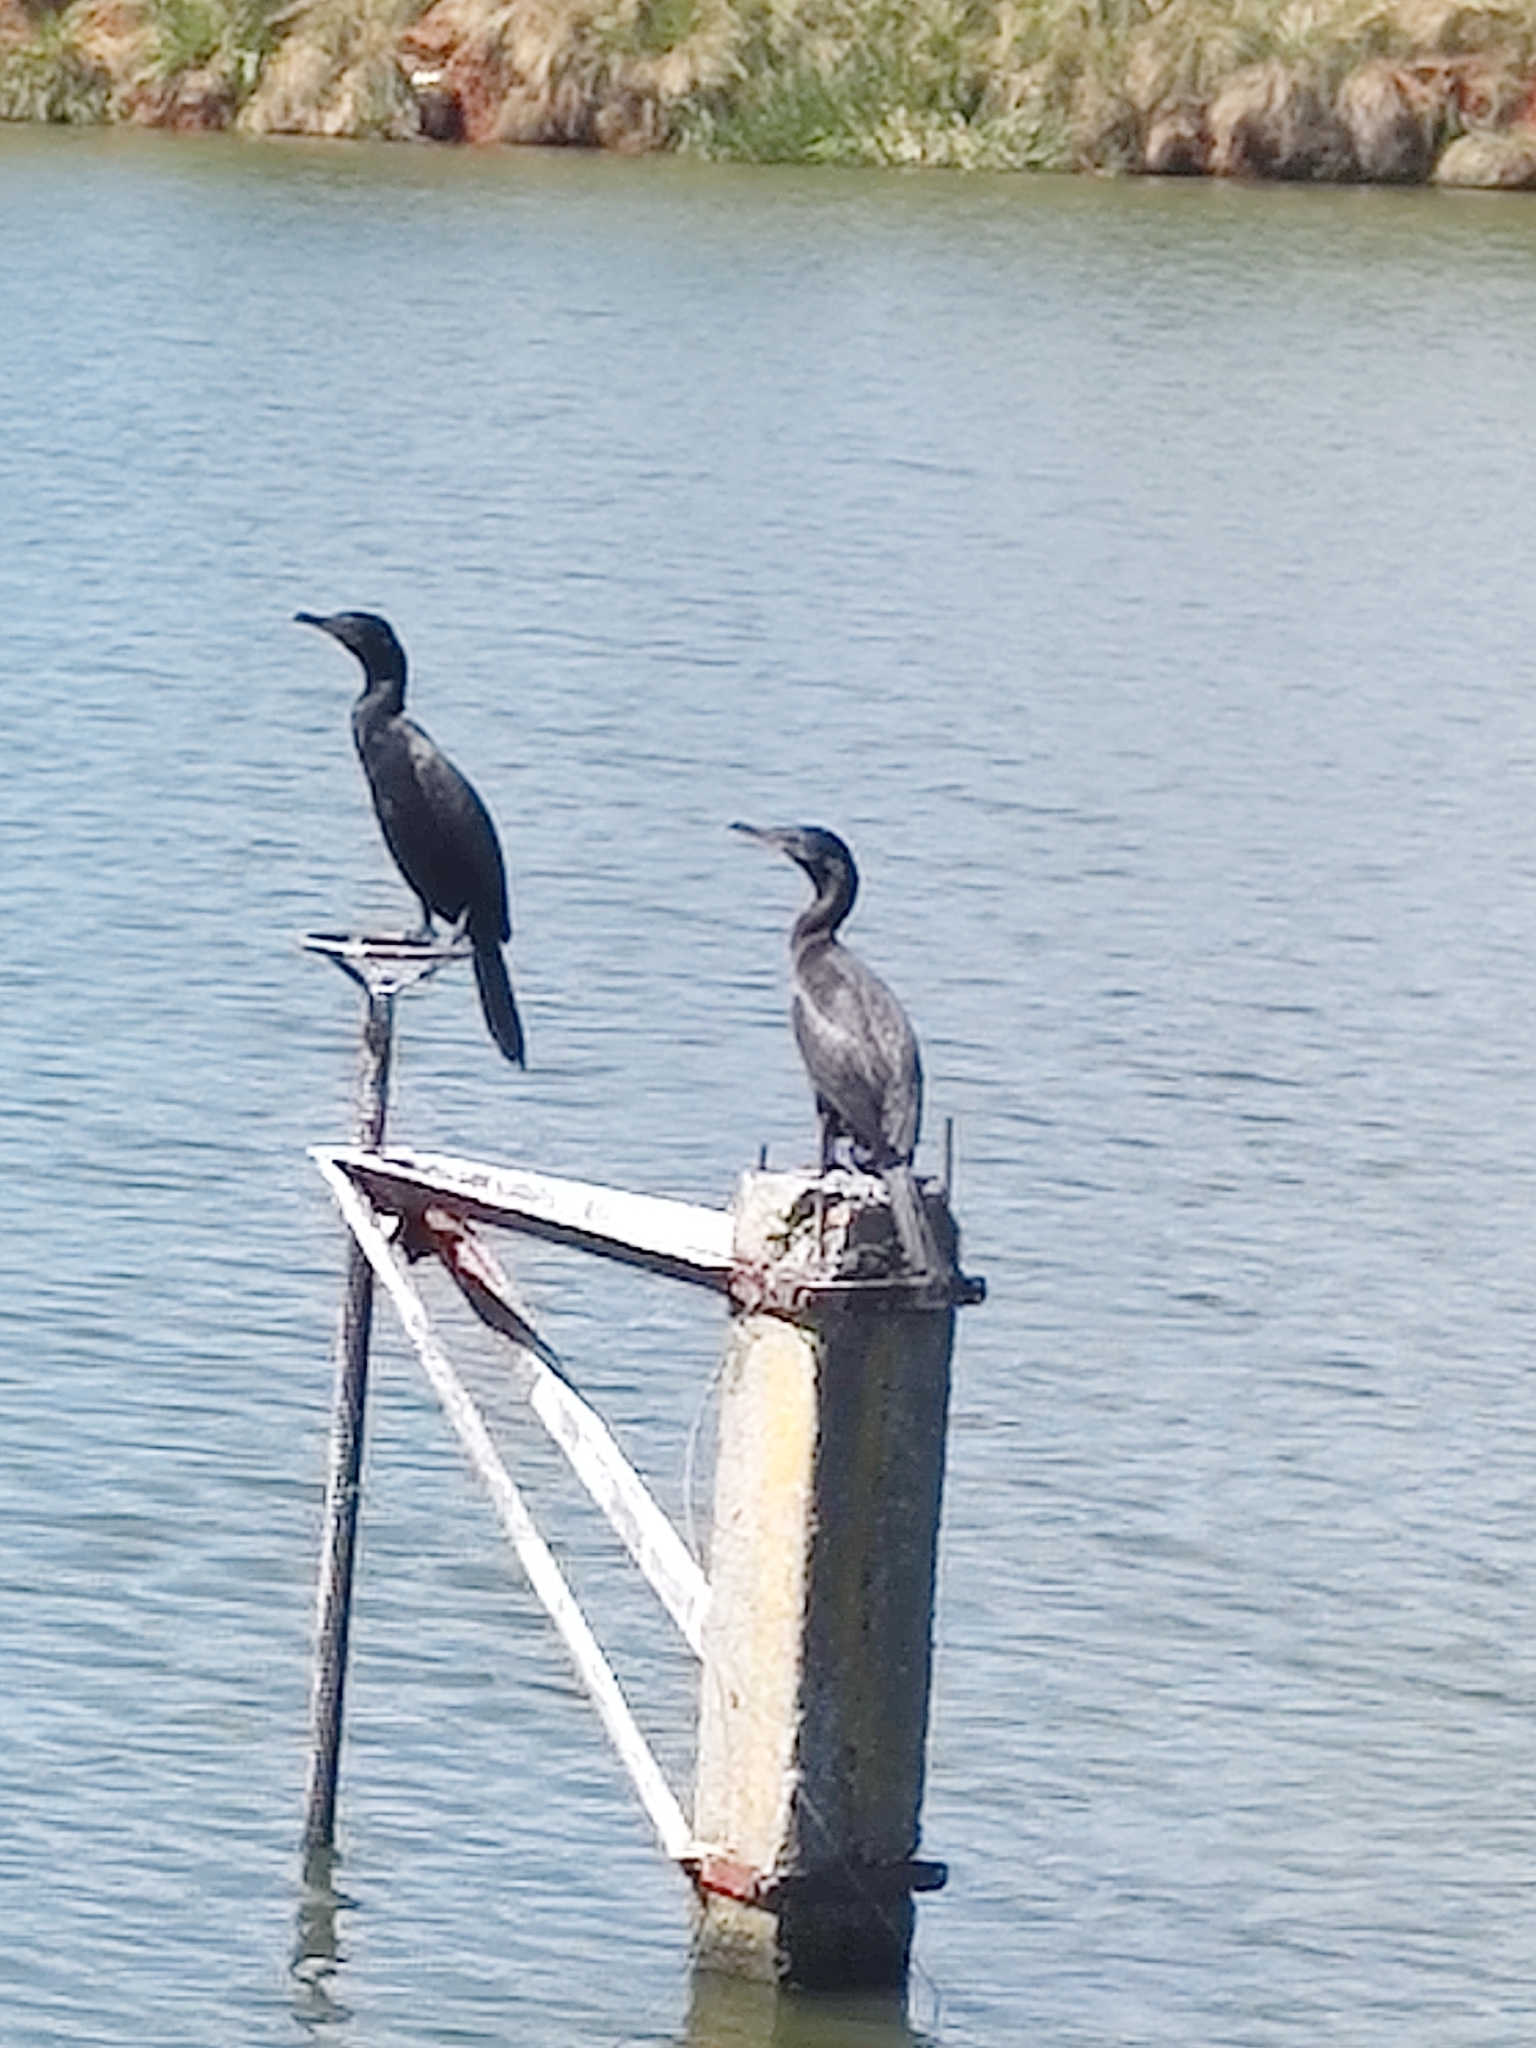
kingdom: Animalia
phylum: Chordata
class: Aves
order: Suliformes
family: Phalacrocoracidae
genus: Phalacrocorax
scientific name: Phalacrocorax brasilianus
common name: Neotropic cormorant
